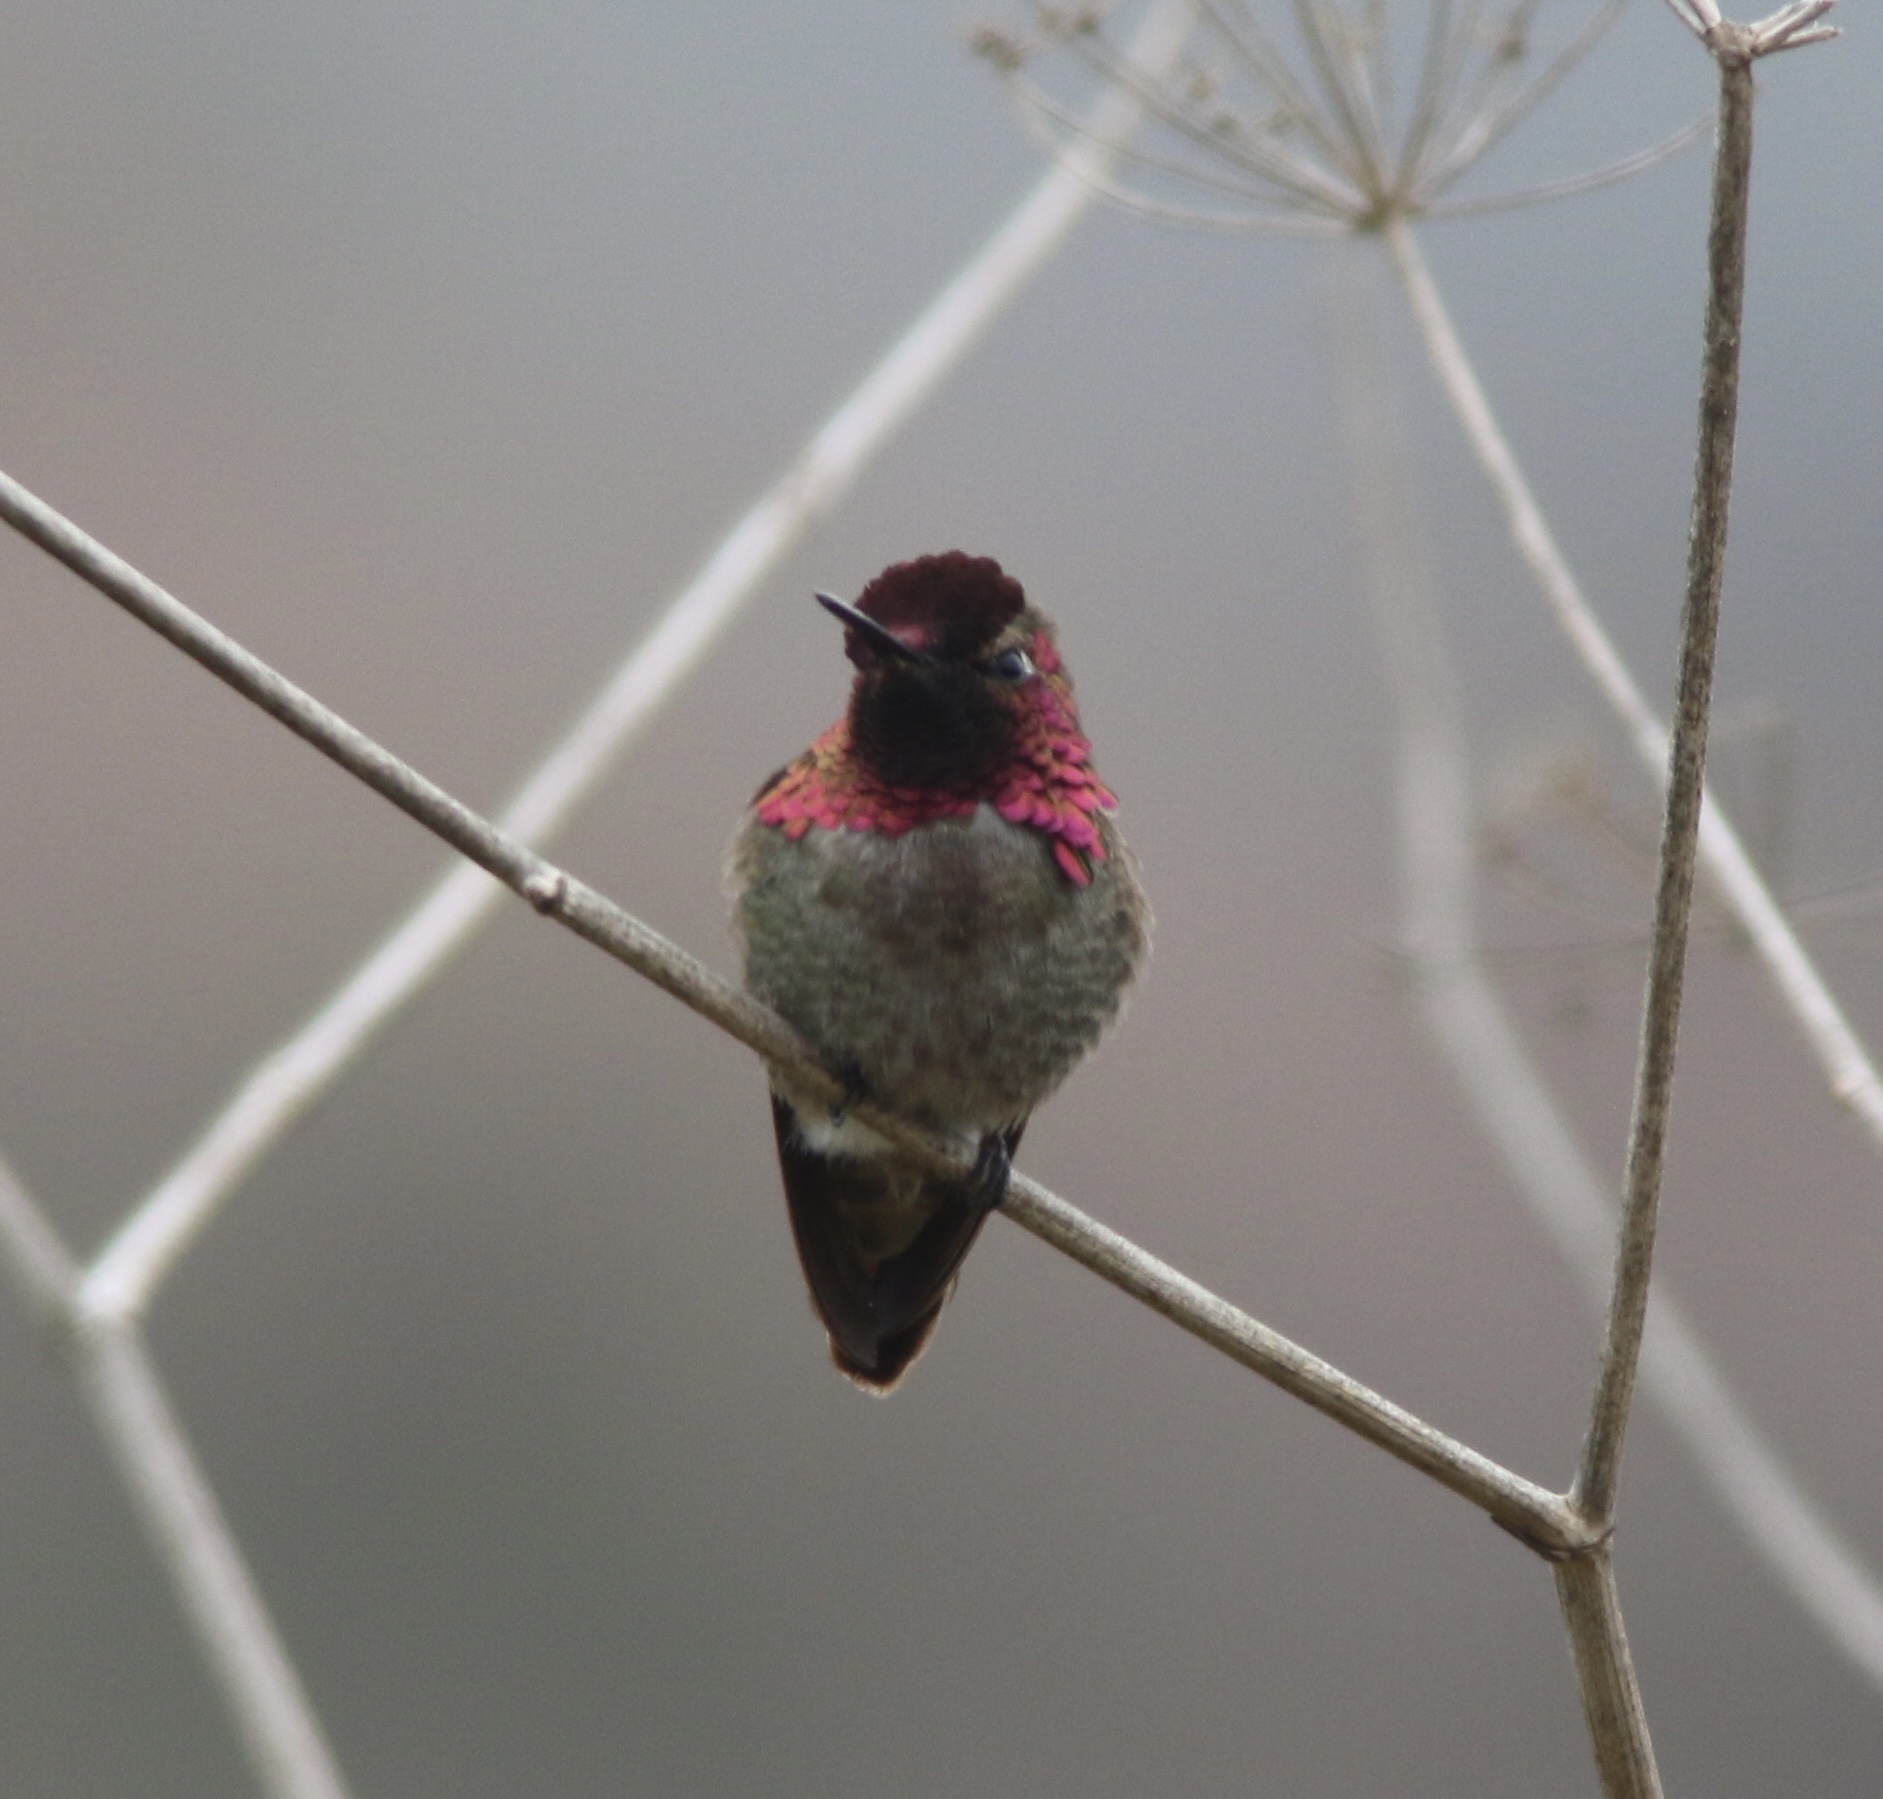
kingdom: Animalia
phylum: Chordata
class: Aves
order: Apodiformes
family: Trochilidae
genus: Calypte
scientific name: Calypte anna
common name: Anna's hummingbird
